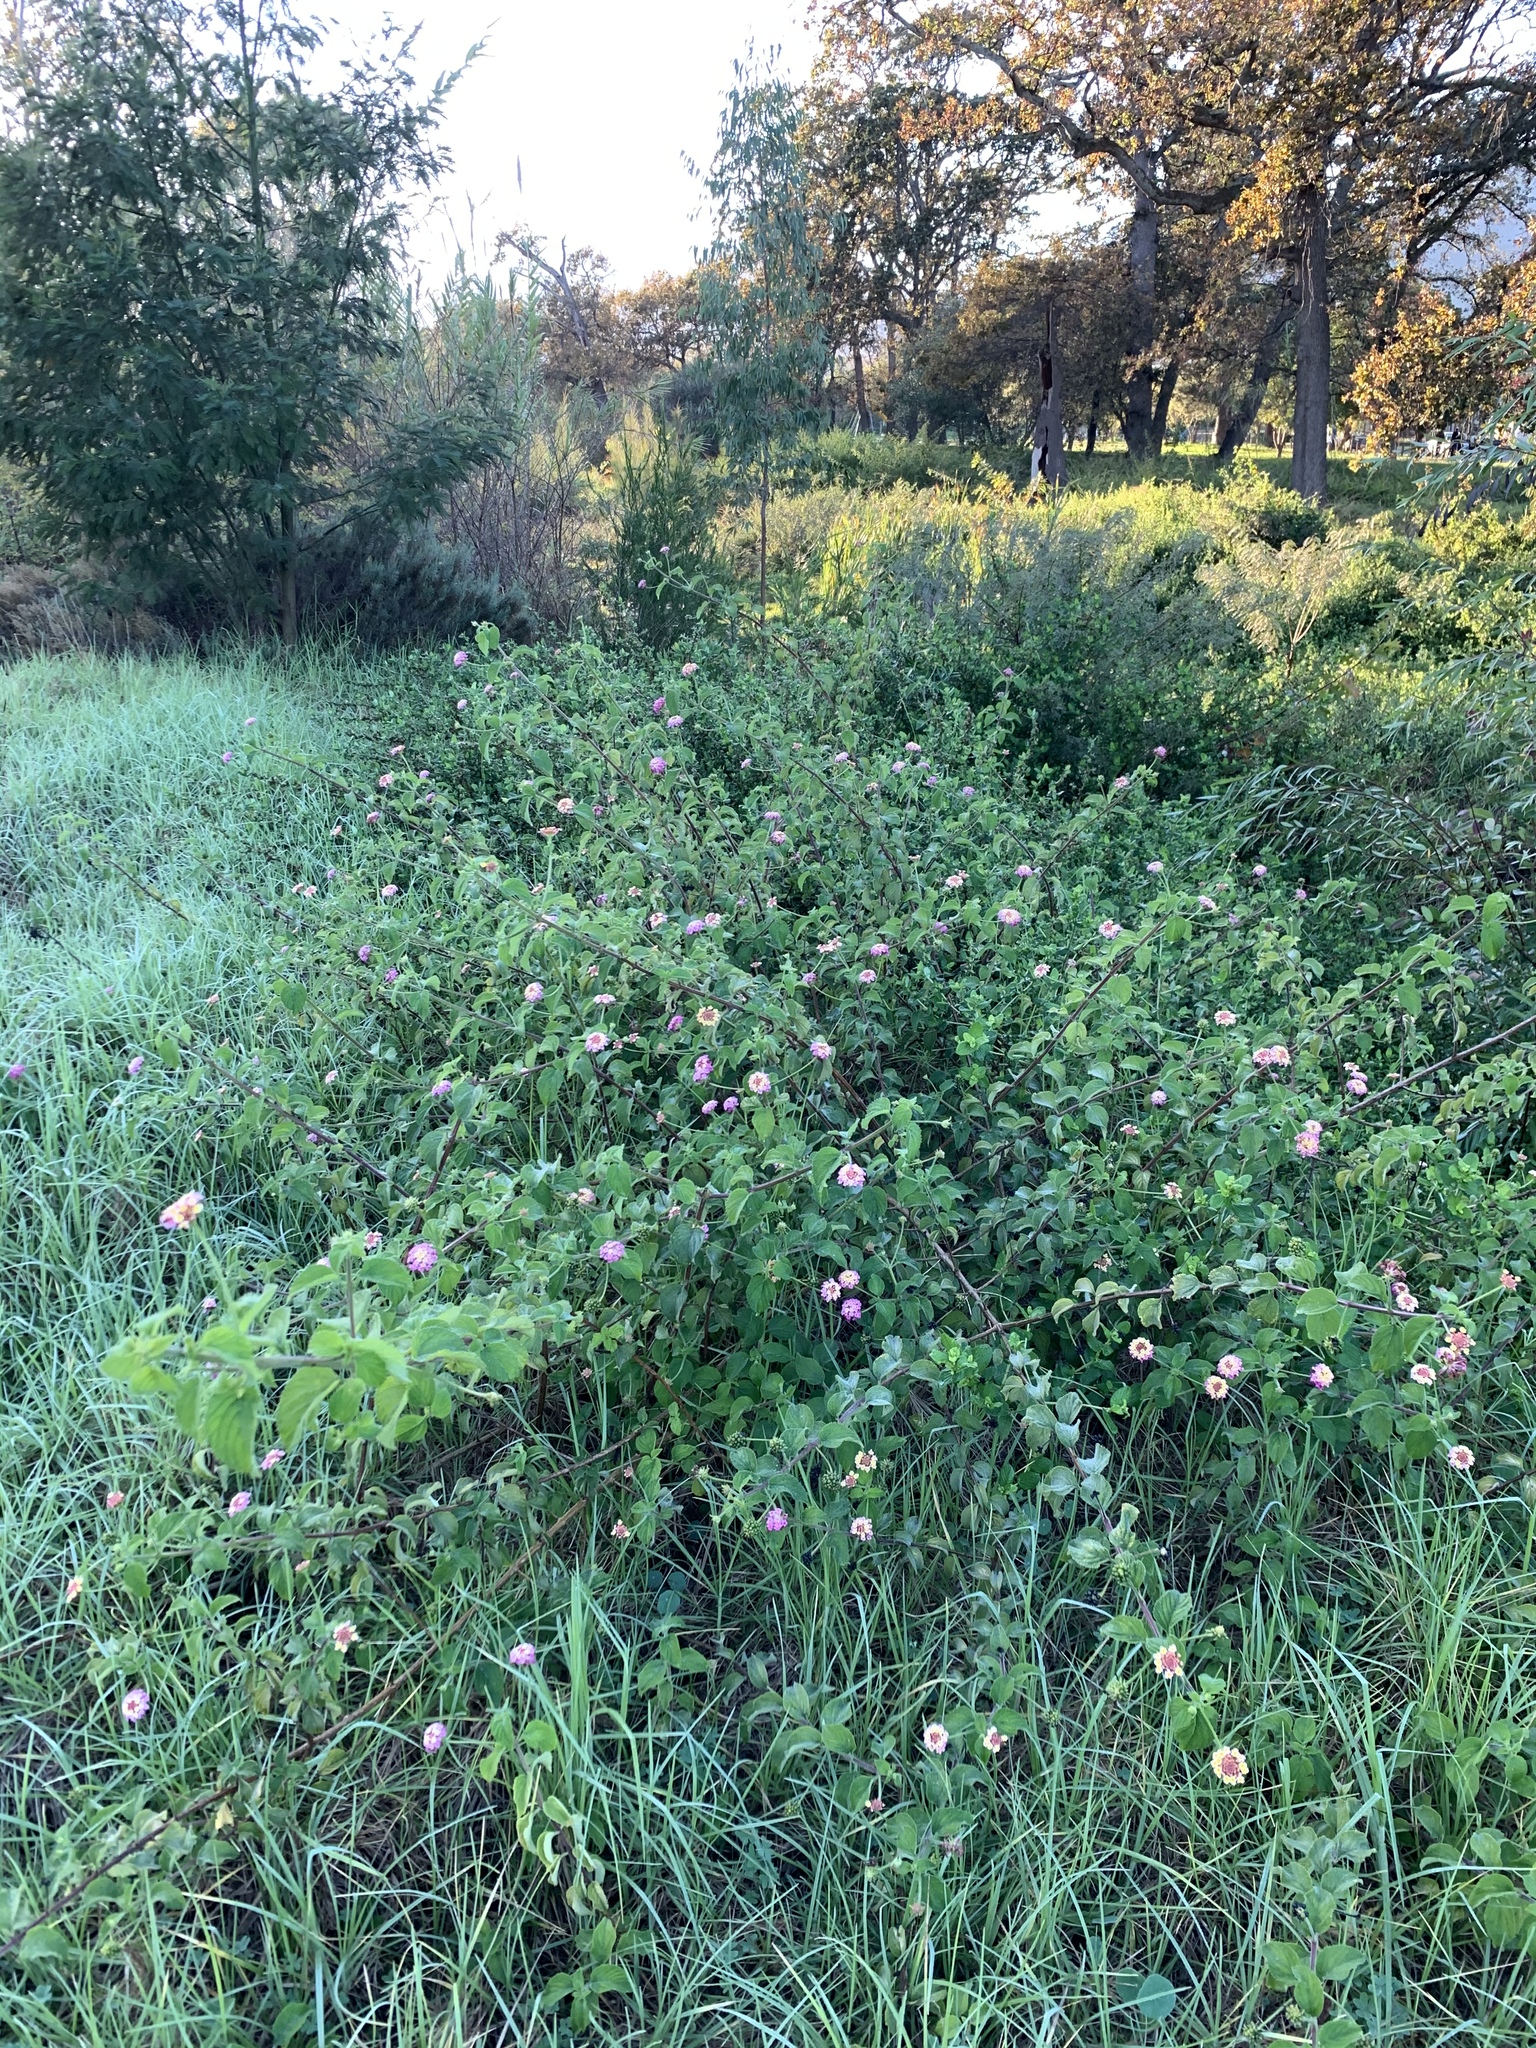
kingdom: Plantae
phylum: Tracheophyta
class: Magnoliopsida
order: Lamiales
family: Verbenaceae
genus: Lantana
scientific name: Lantana camara
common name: Lantana
